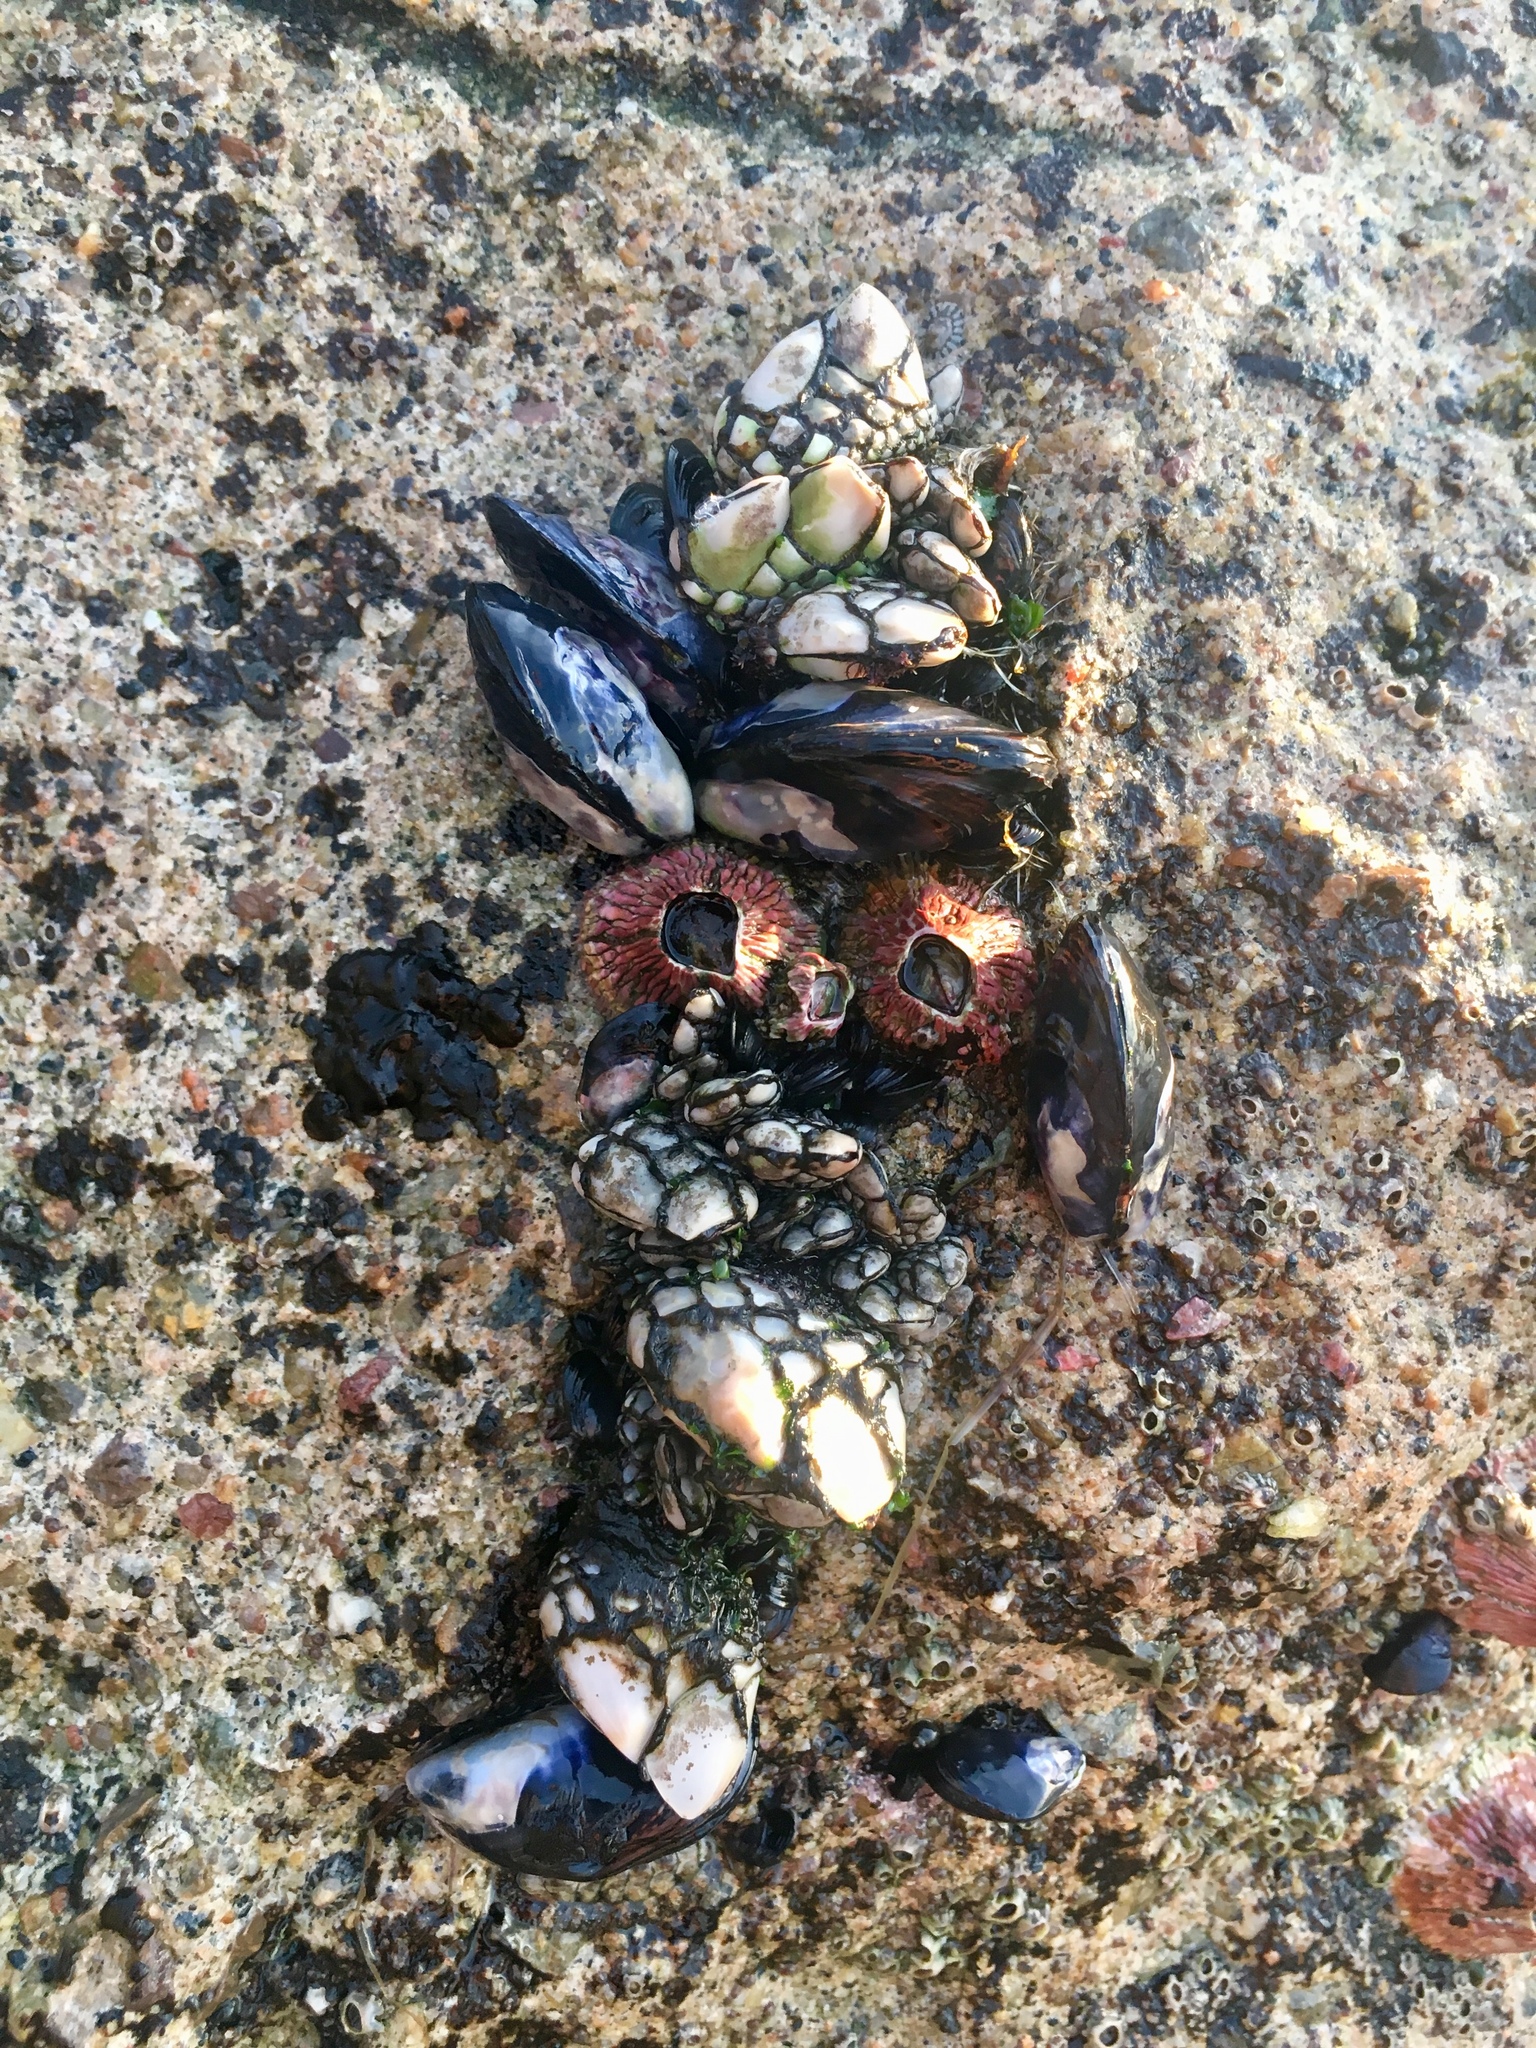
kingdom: Animalia
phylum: Arthropoda
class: Maxillopoda
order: Sessilia
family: Tetraclitidae
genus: Tetraclita
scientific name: Tetraclita rubescens
